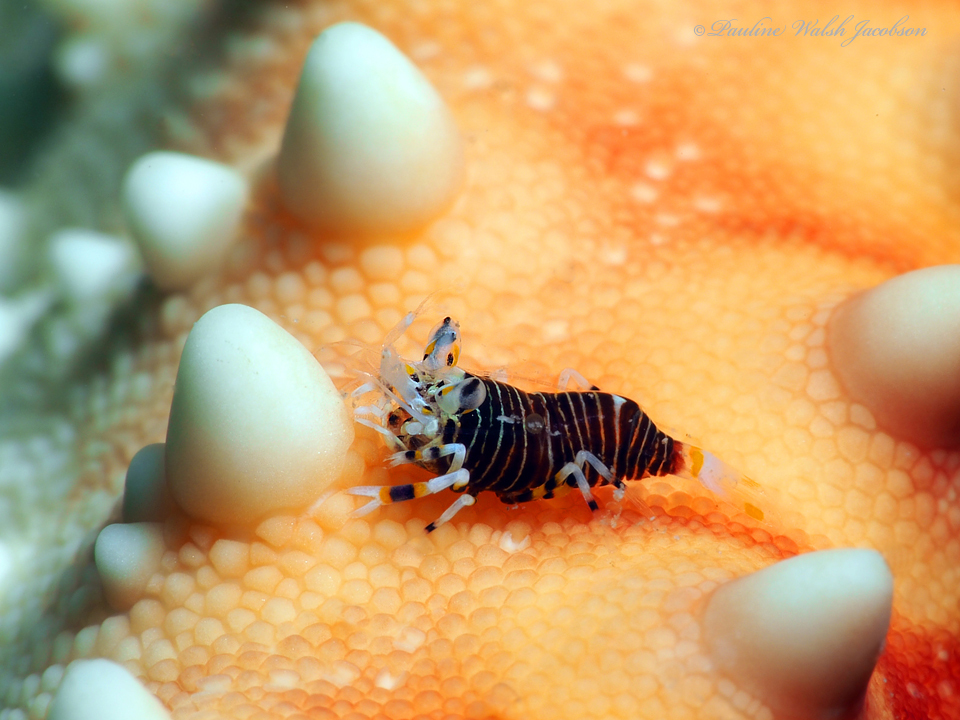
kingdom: Animalia
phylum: Arthropoda
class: Malacostraca
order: Decapoda
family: Palaemonidae
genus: Gnathophyllum
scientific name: Gnathophyllum americanum
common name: Bumblebee shrimp
